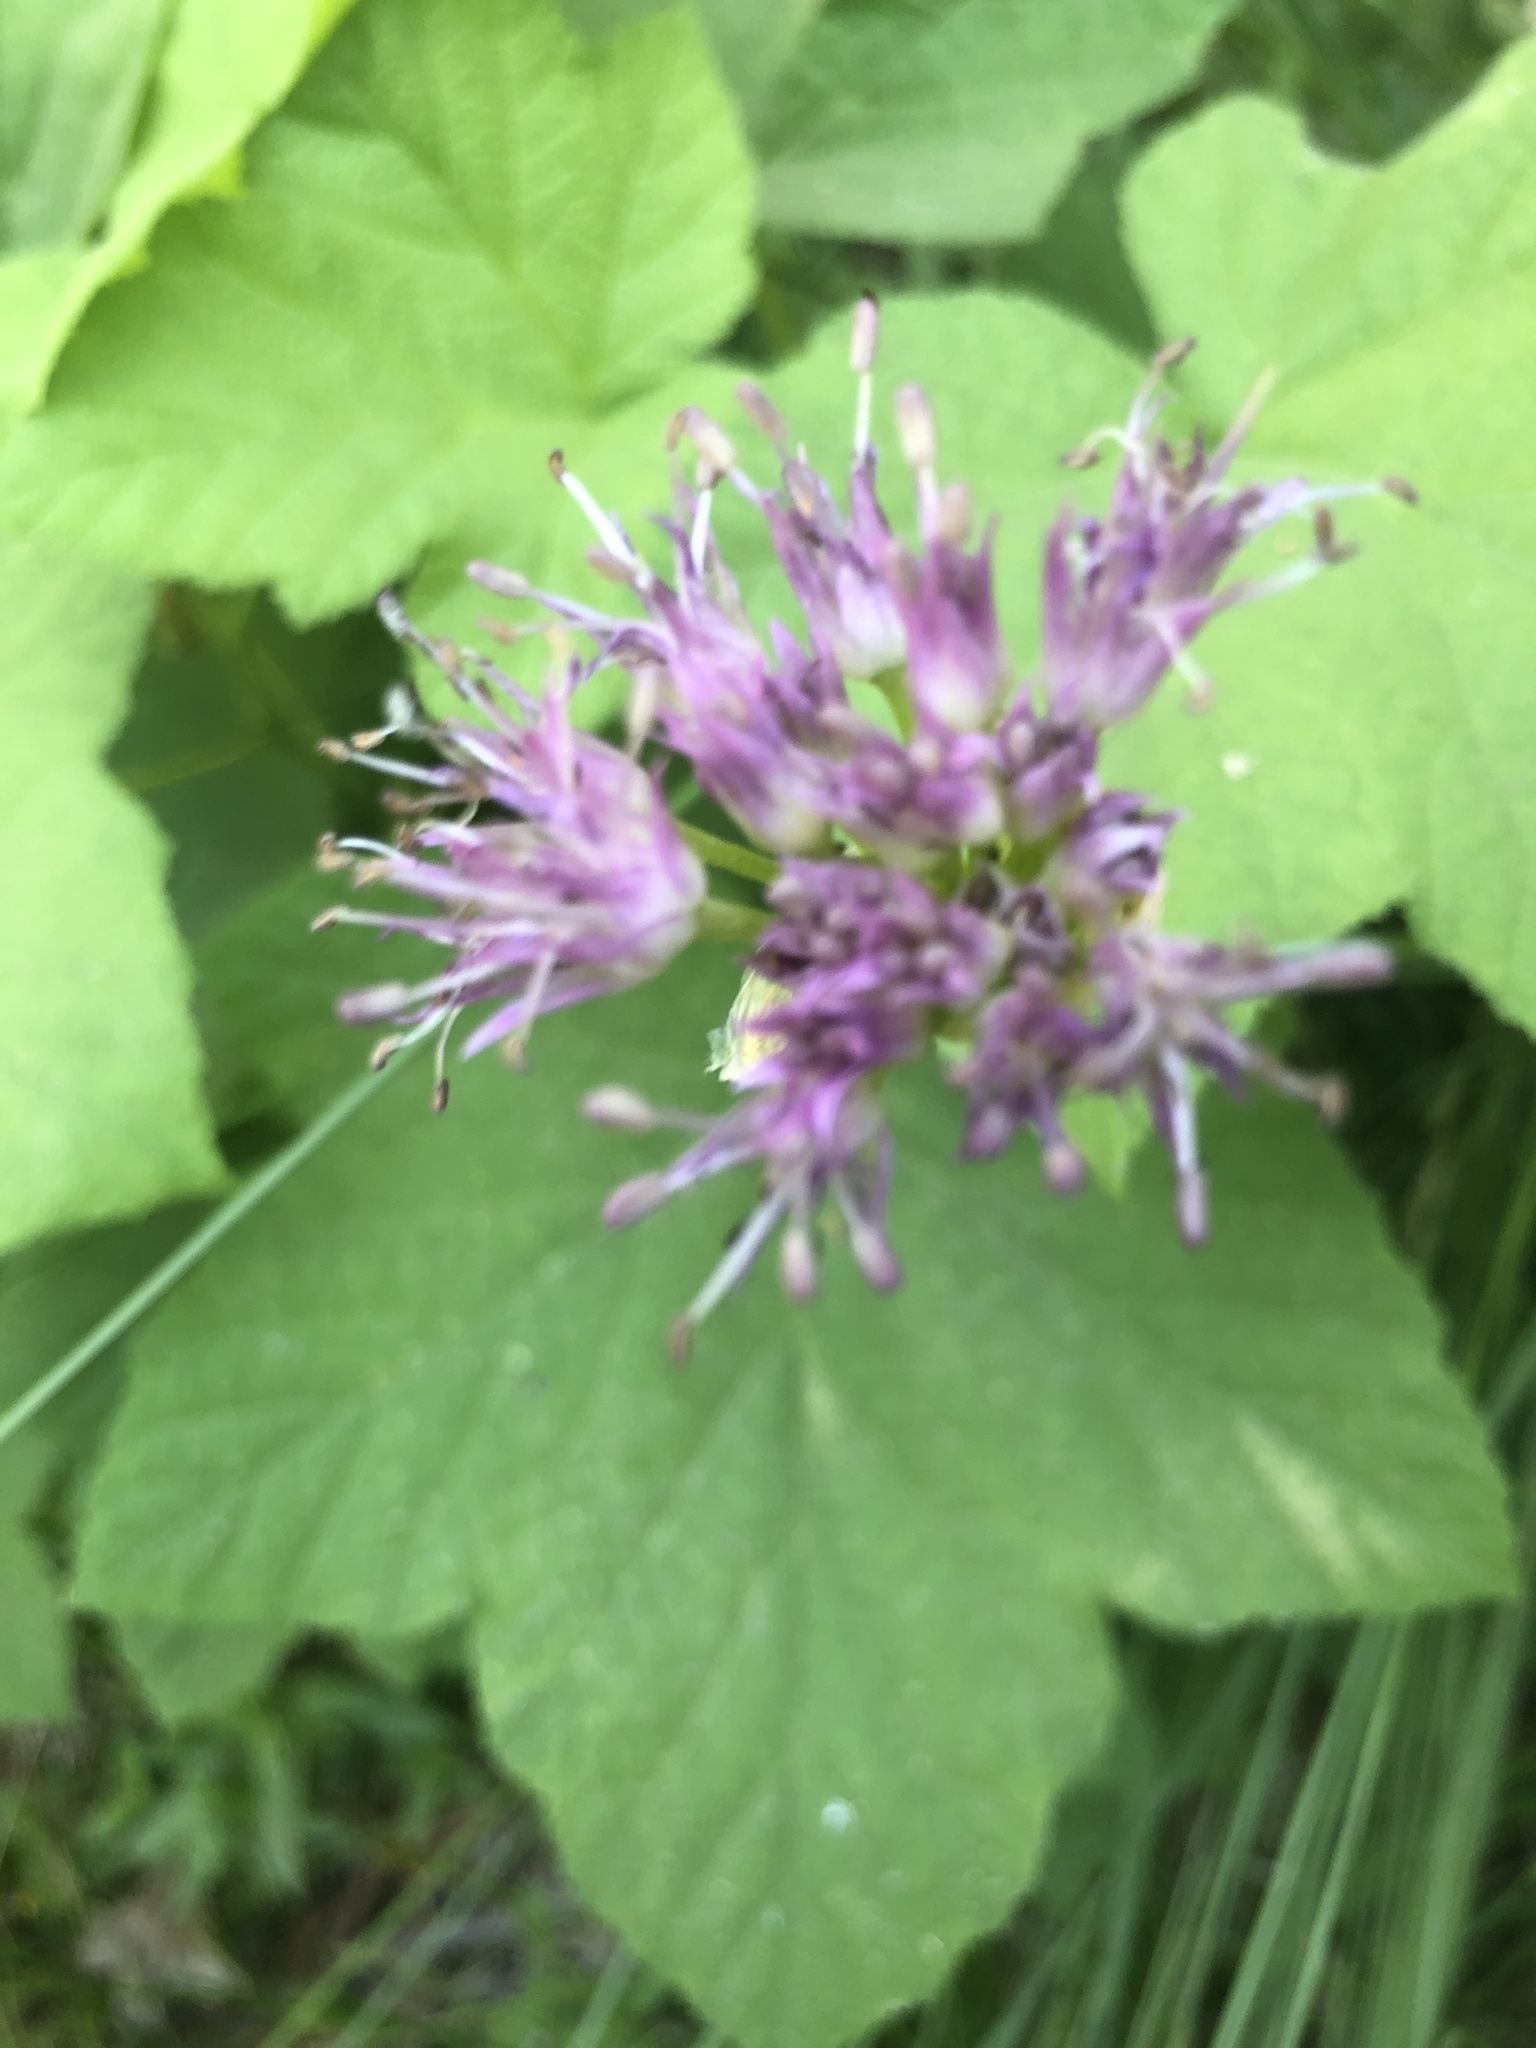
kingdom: Plantae
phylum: Tracheophyta
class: Liliopsida
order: Asparagales
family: Amaryllidaceae
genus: Allium
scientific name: Allium validum
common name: Pacific mountain onion
